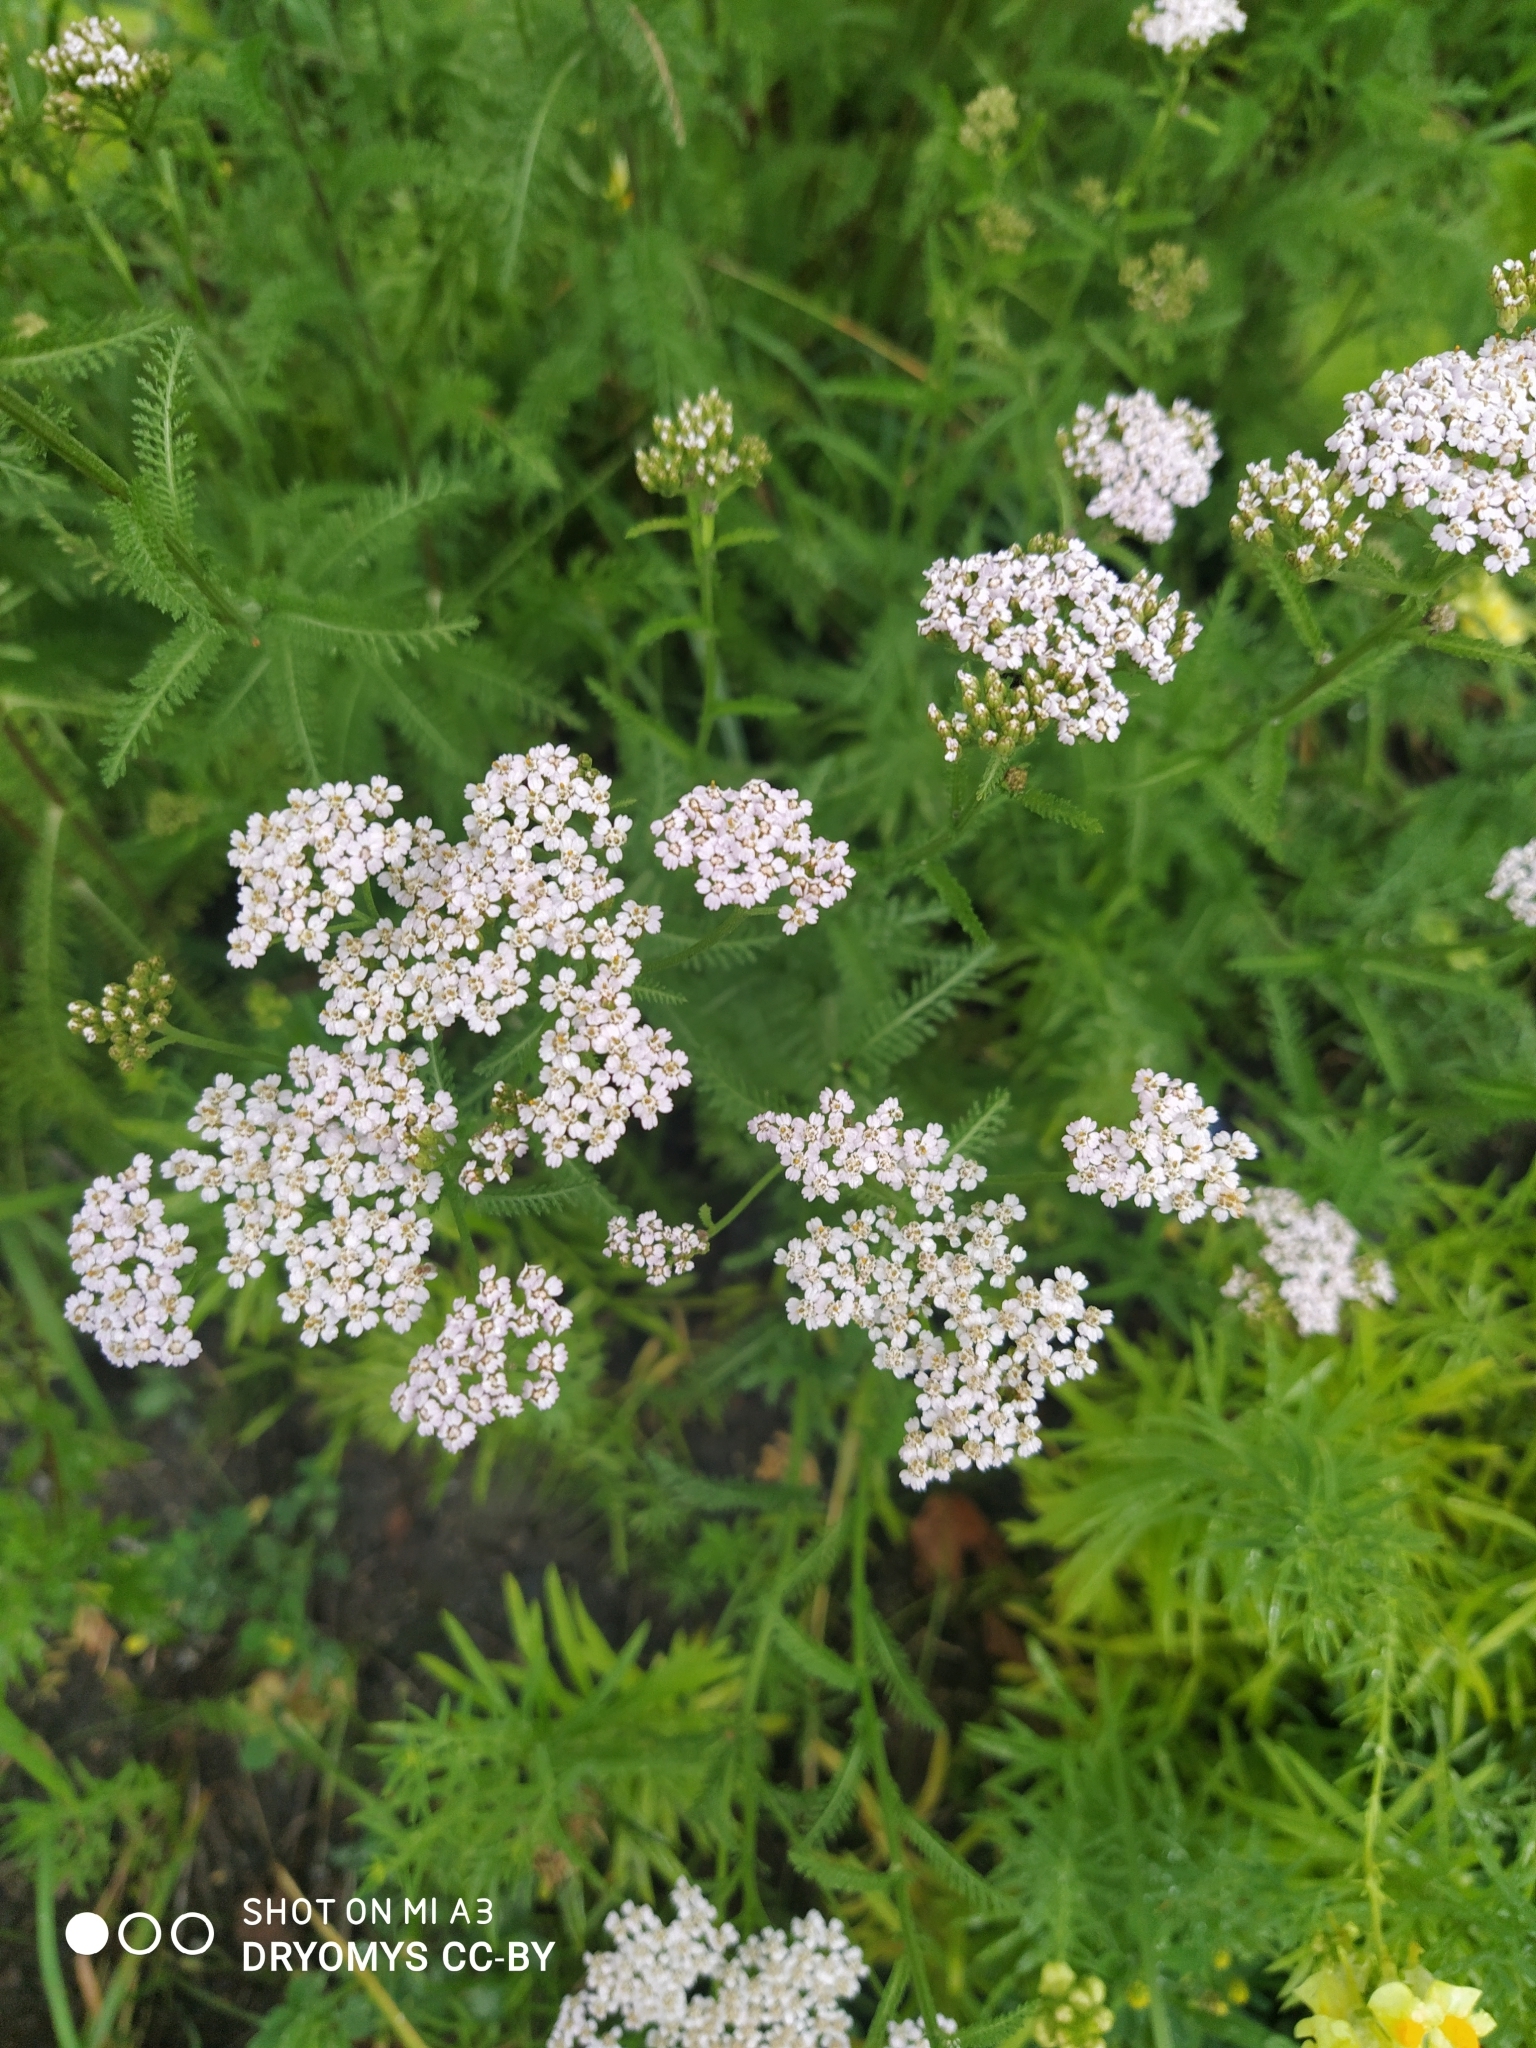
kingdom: Plantae
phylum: Tracheophyta
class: Magnoliopsida
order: Asterales
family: Asteraceae
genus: Achillea
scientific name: Achillea millefolium
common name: Yarrow
